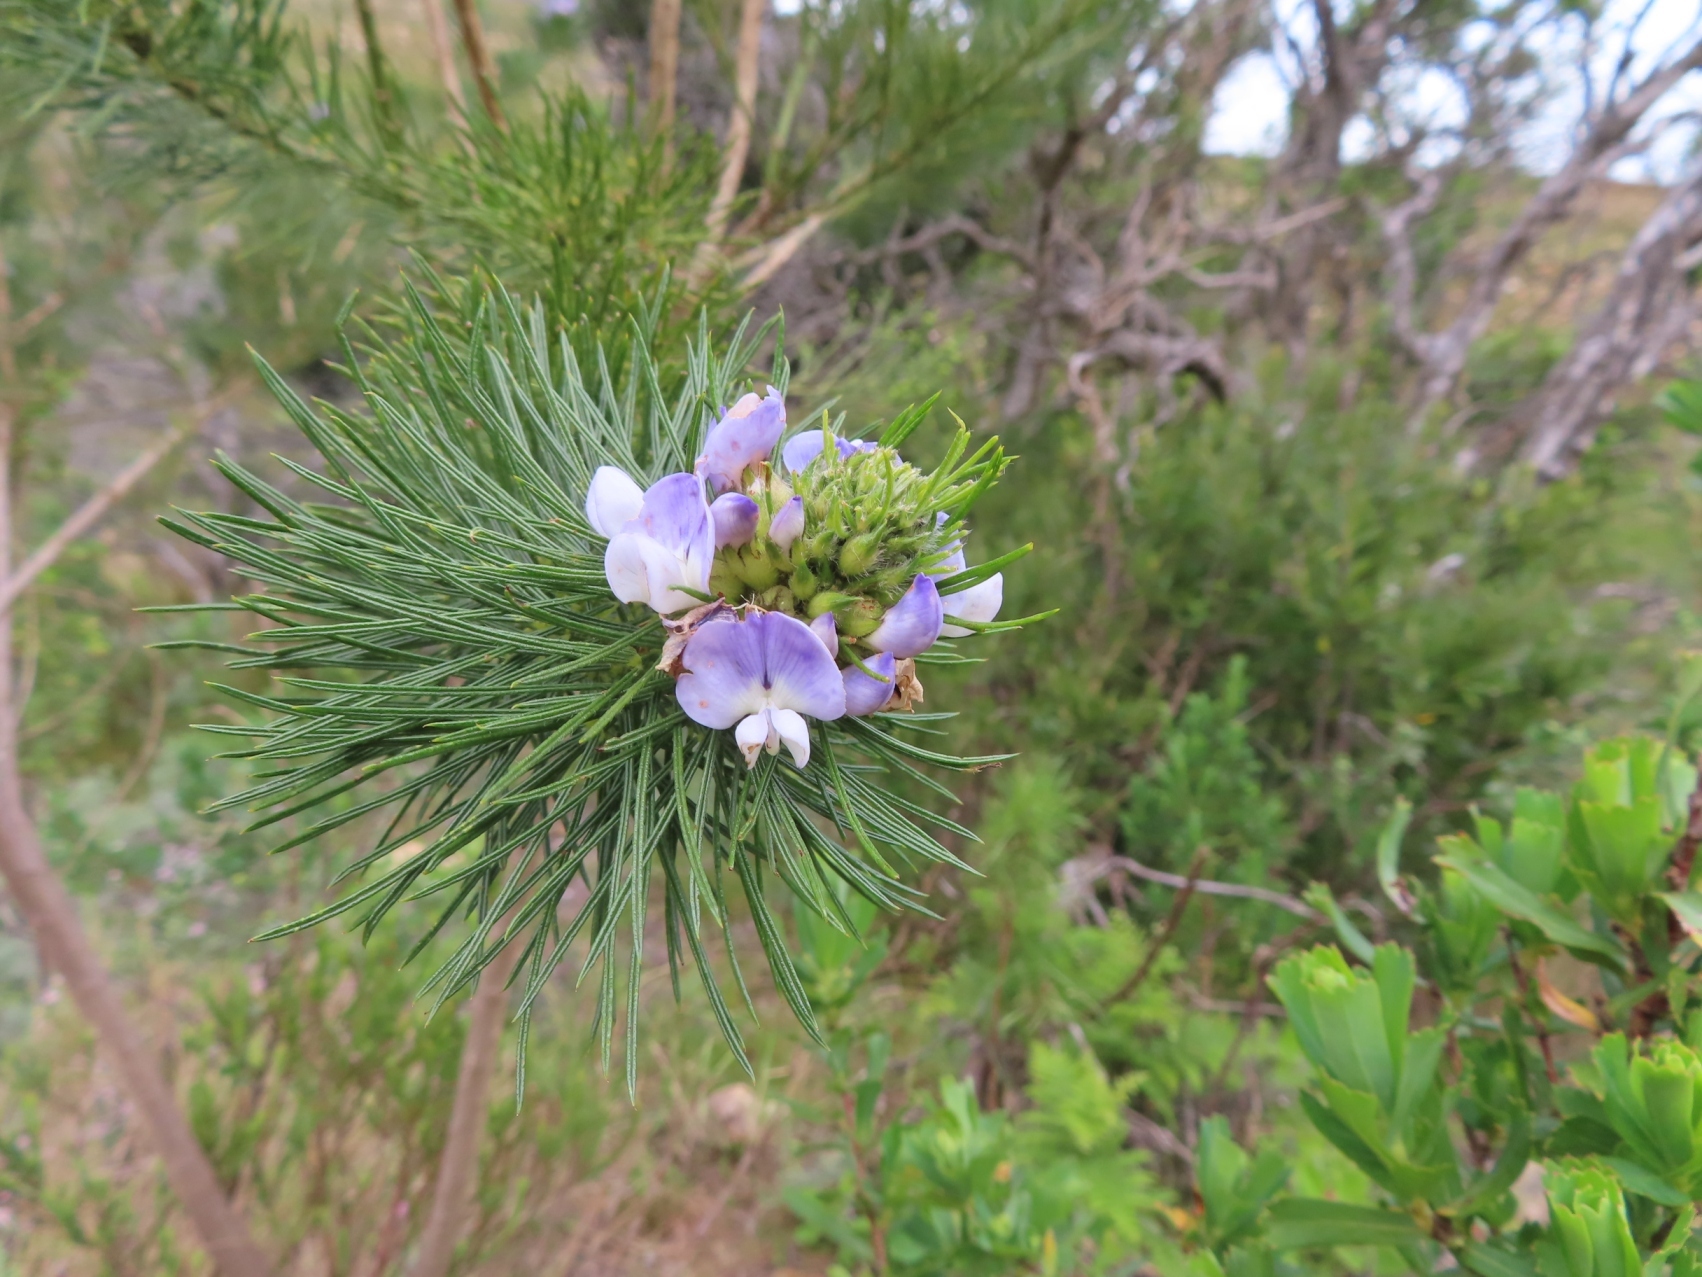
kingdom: Plantae
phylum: Tracheophyta
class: Magnoliopsida
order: Fabales
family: Fabaceae
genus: Psoralea
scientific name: Psoralea pinnata
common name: African scurfpea
